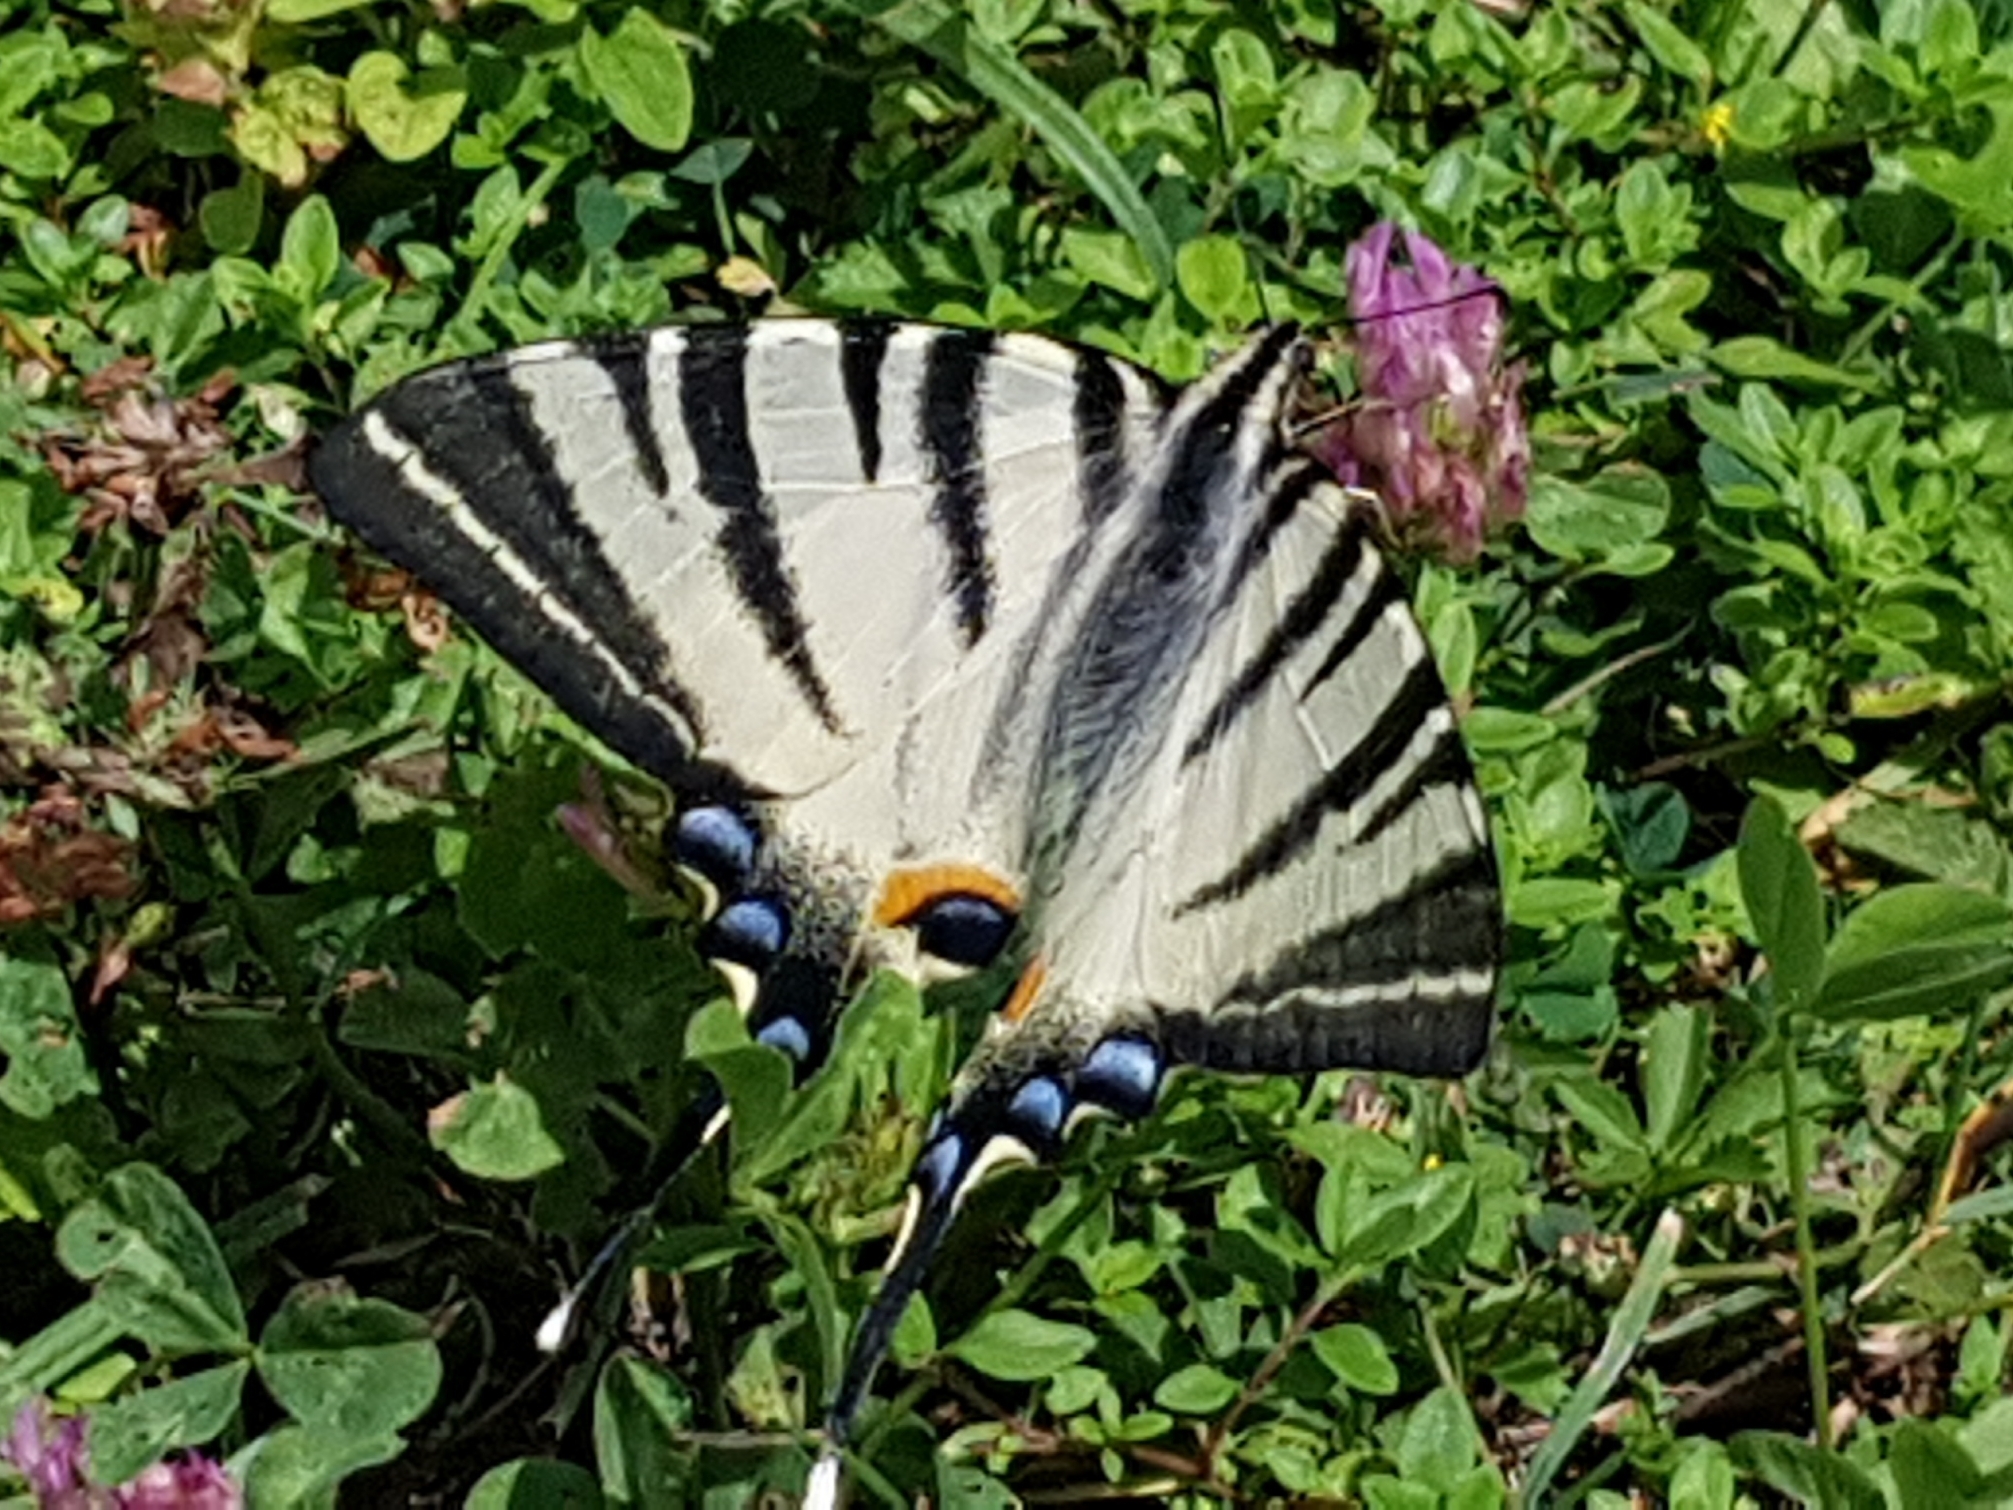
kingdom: Animalia
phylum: Arthropoda
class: Insecta
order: Lepidoptera
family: Papilionidae
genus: Iphiclides
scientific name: Iphiclides podalirius
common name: Scarce swallowtail
